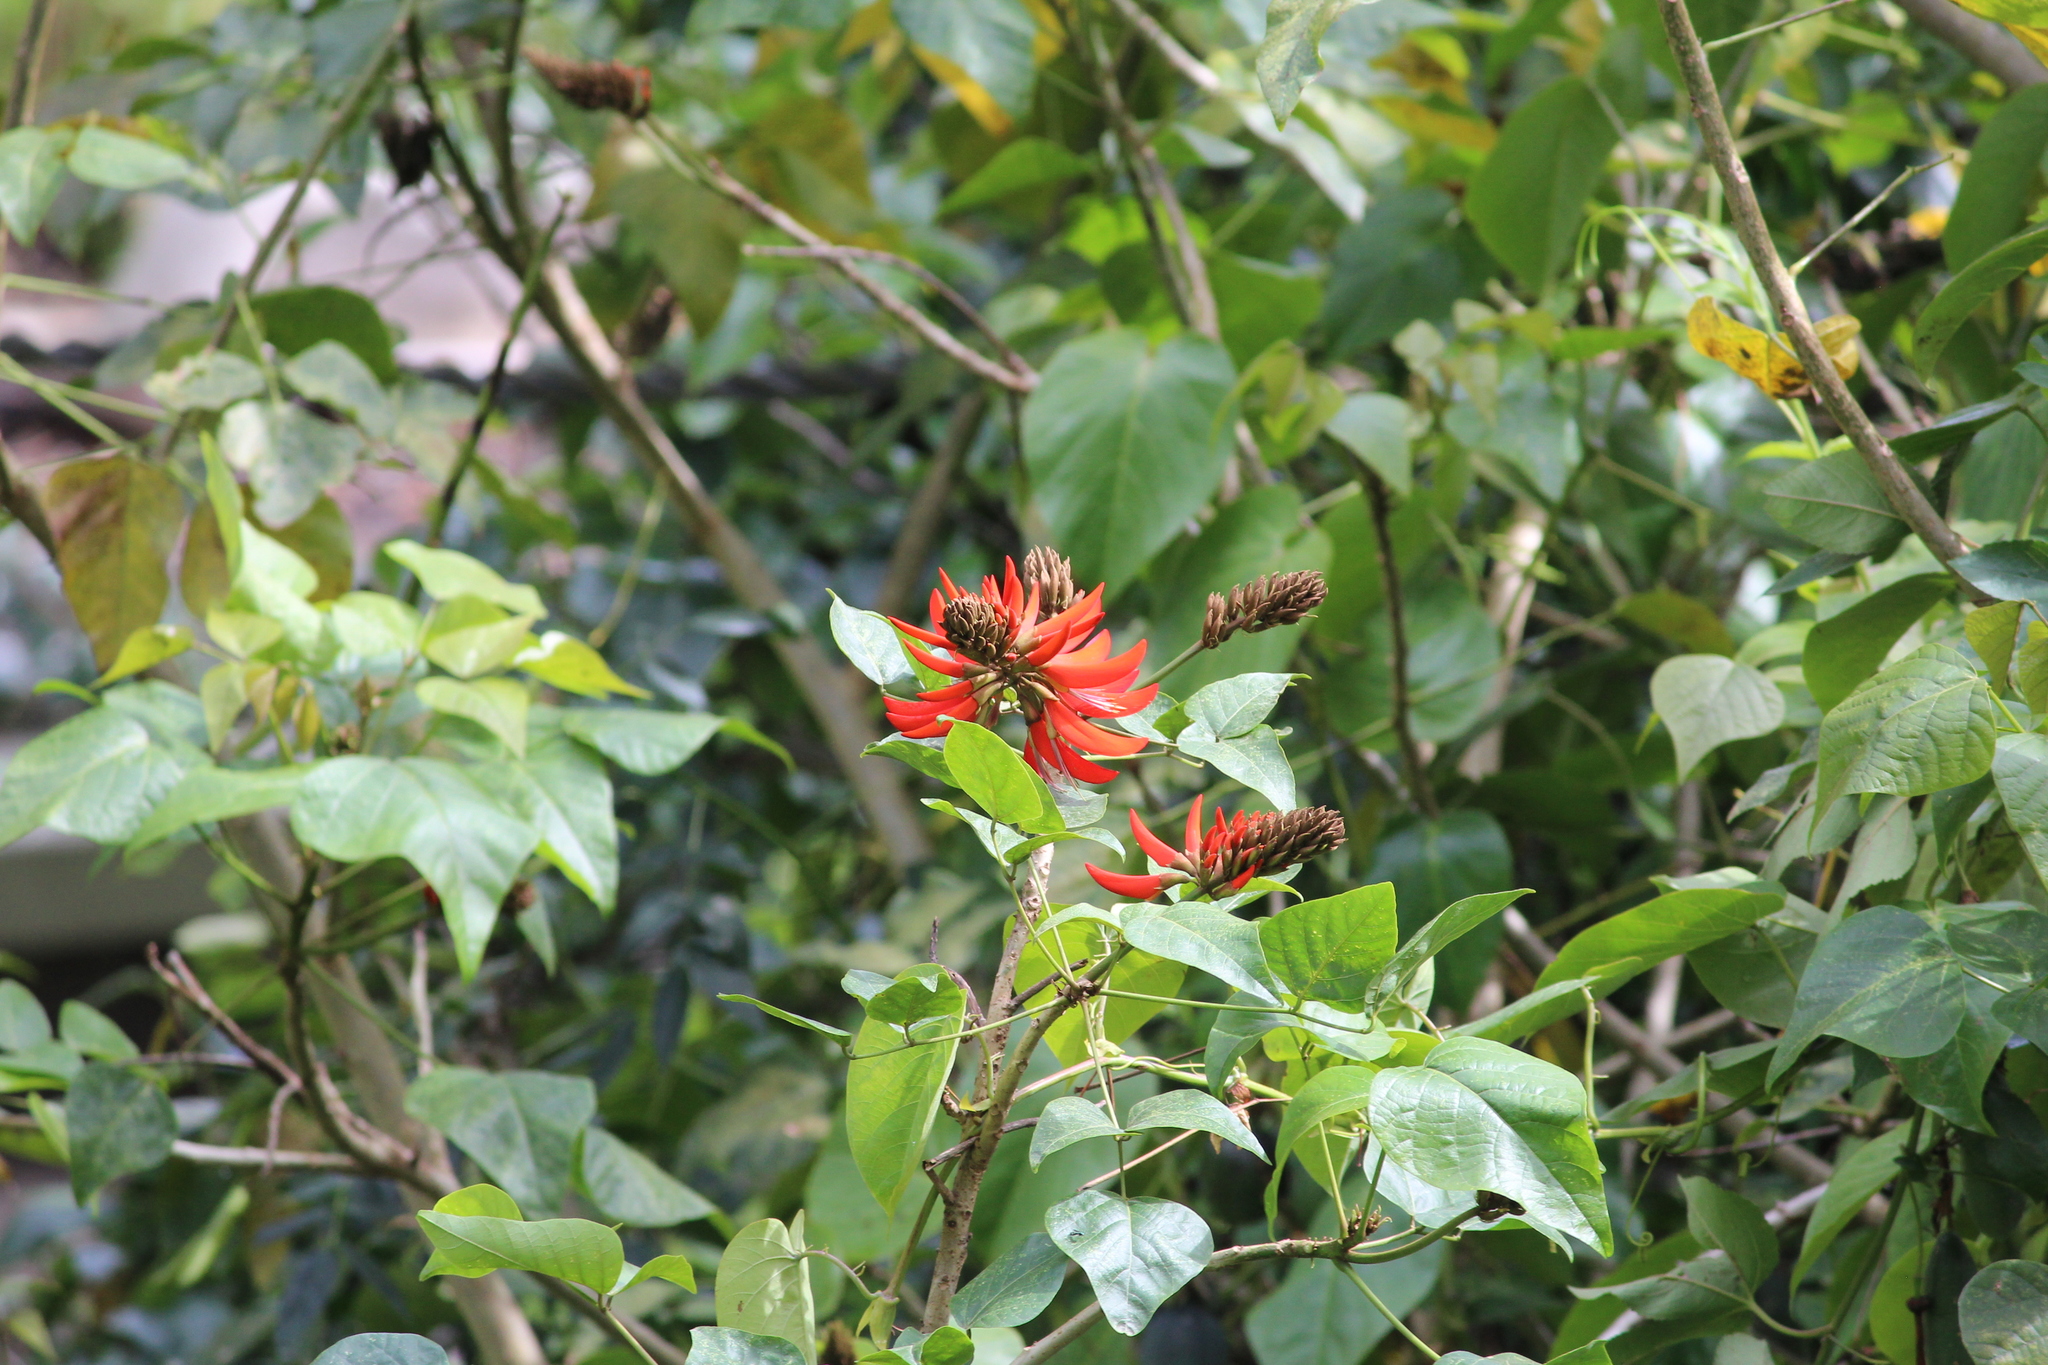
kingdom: Plantae
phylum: Tracheophyta
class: Magnoliopsida
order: Fabales
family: Fabaceae
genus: Erythrina
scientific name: Erythrina variegata
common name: Indian coral tree
